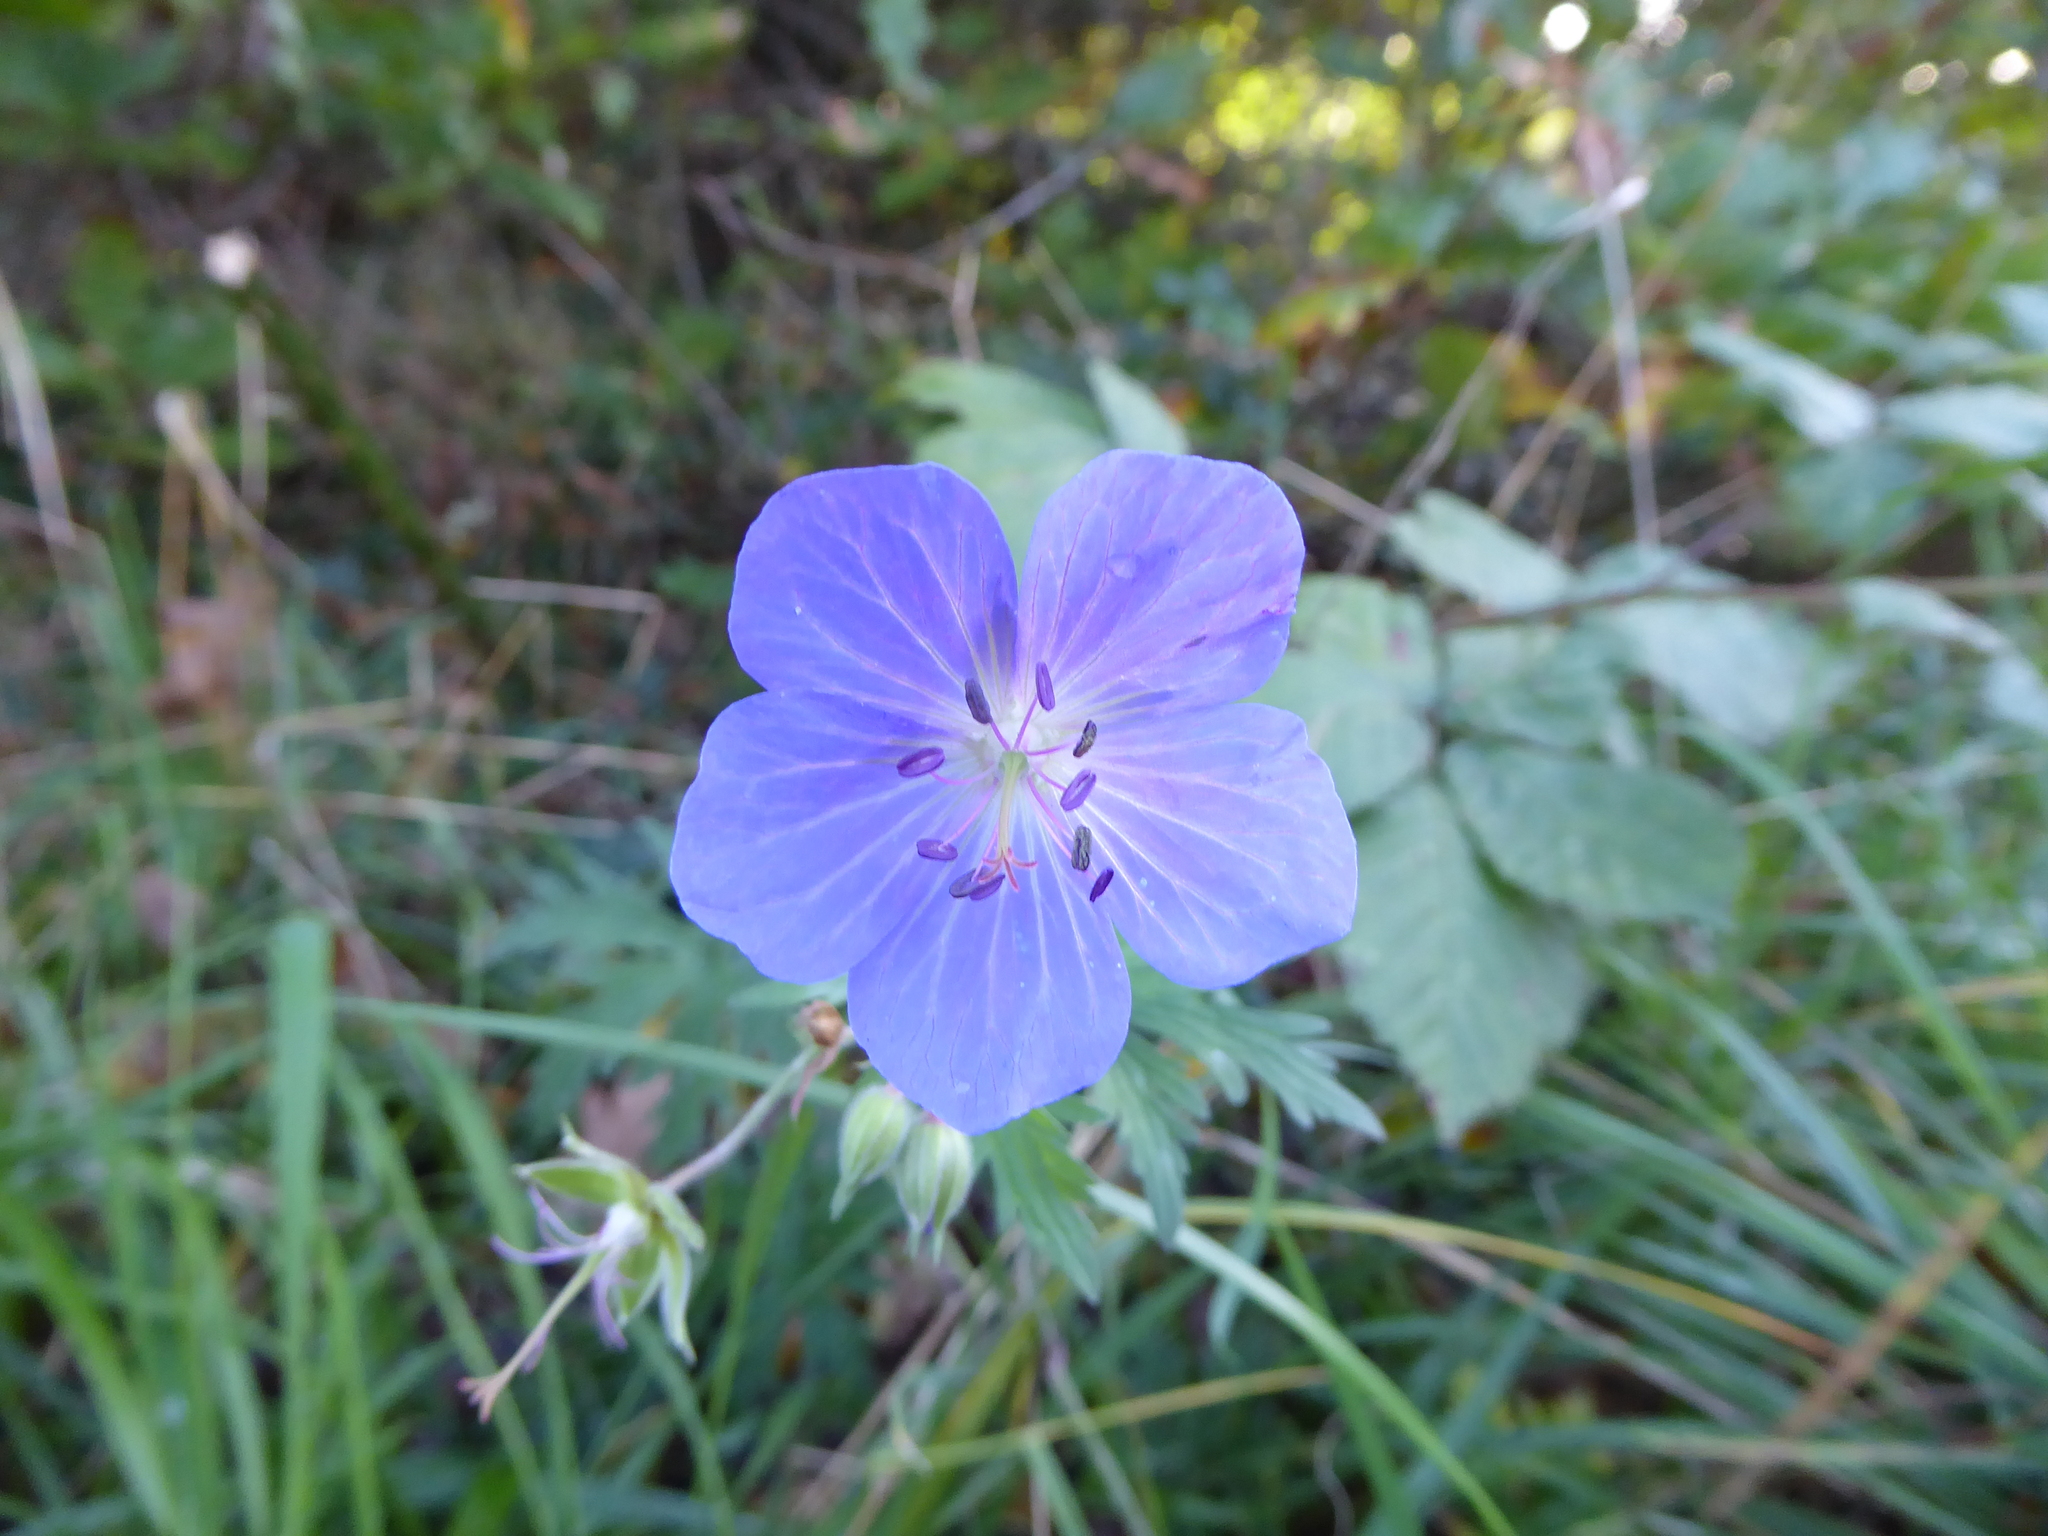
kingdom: Plantae
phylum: Tracheophyta
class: Magnoliopsida
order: Geraniales
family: Geraniaceae
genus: Geranium
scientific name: Geranium pratense
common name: Meadow crane's-bill
